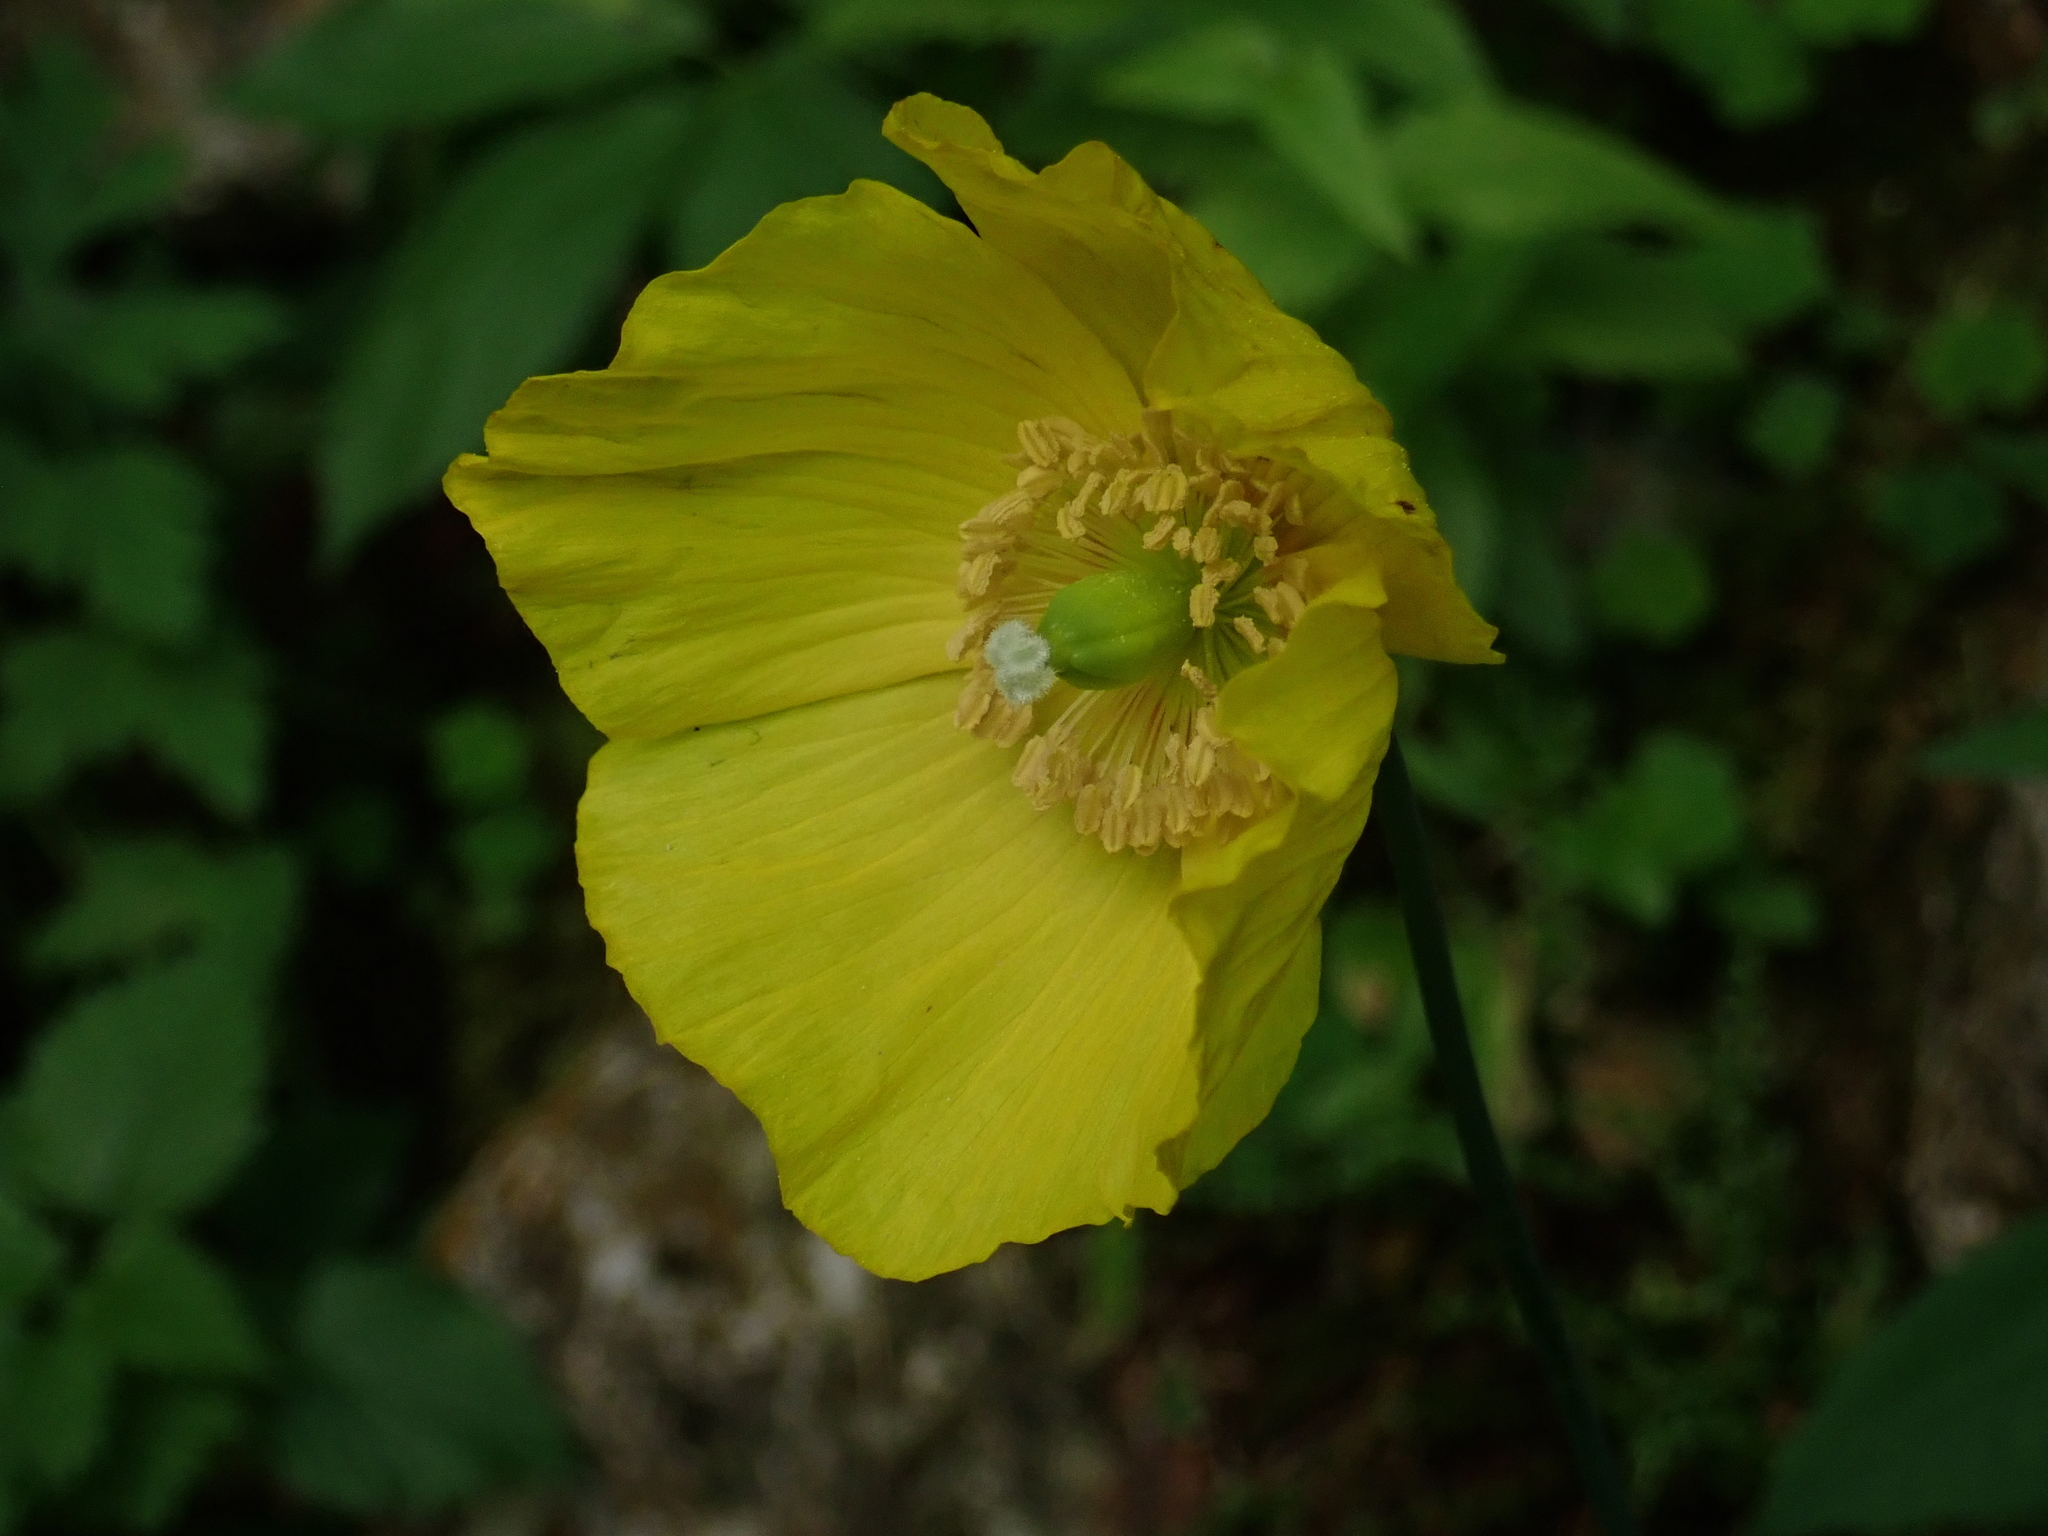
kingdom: Plantae
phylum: Tracheophyta
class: Magnoliopsida
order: Ranunculales
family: Papaveraceae
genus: Papaver
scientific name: Papaver cambricum
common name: Poppy
